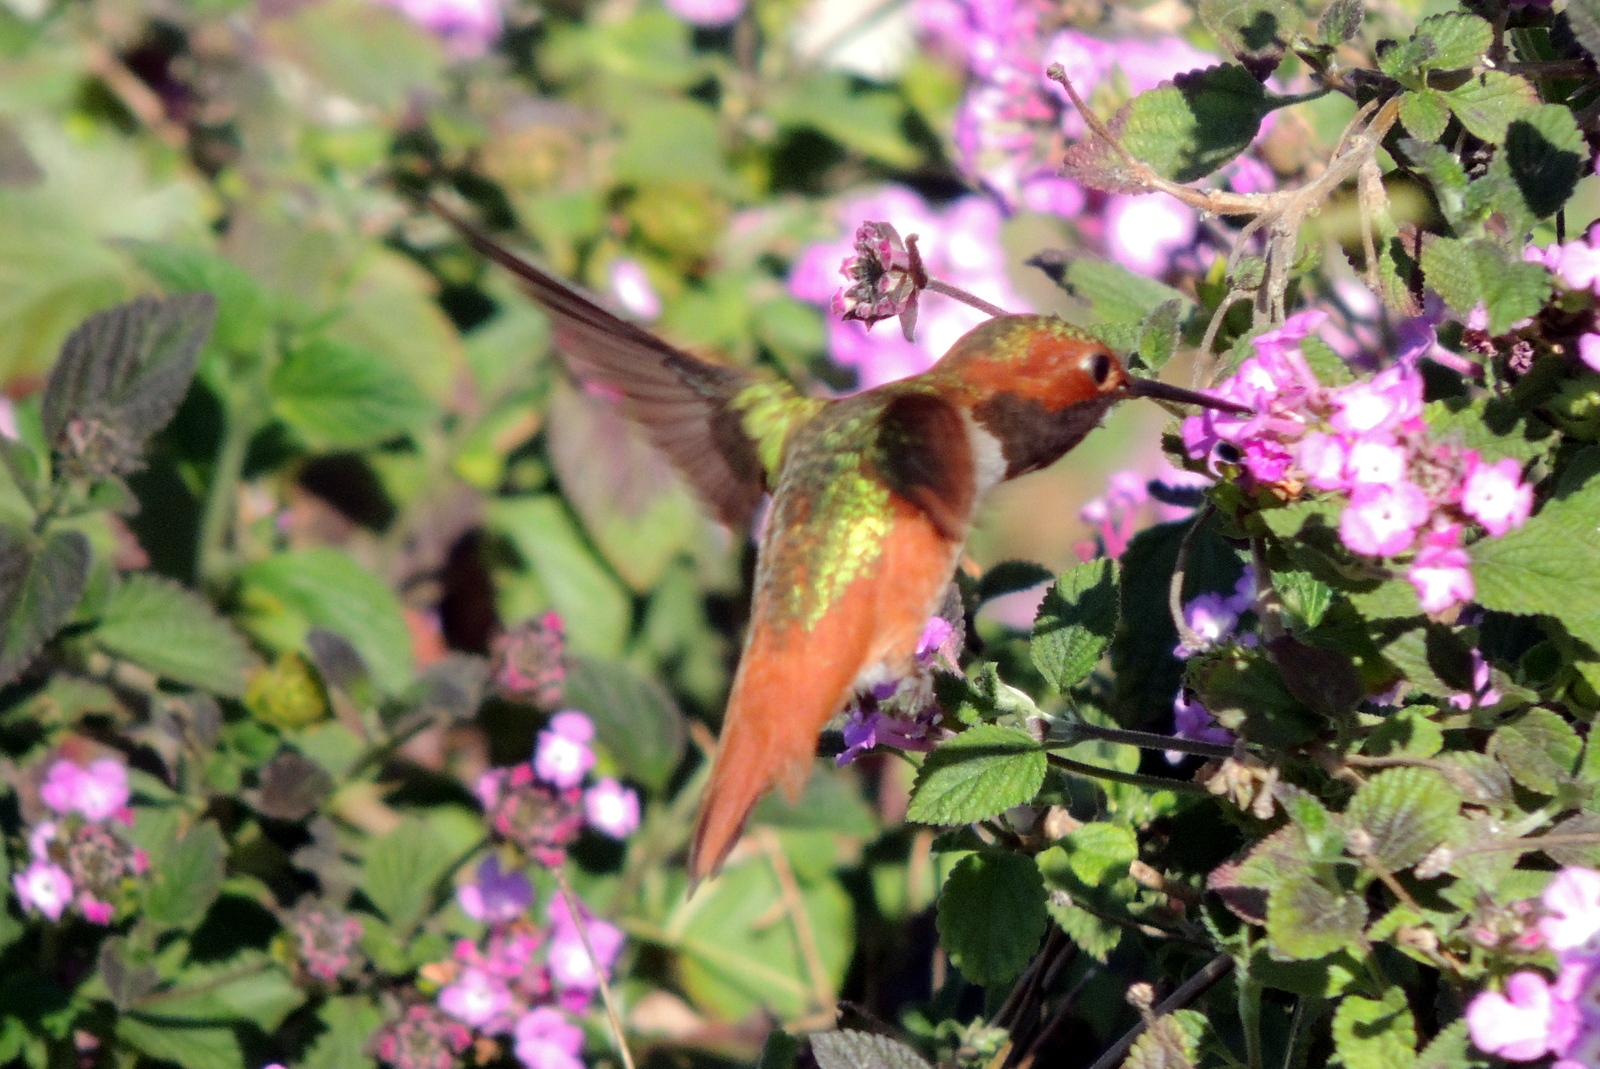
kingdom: Animalia
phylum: Chordata
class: Aves
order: Apodiformes
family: Trochilidae
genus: Selasphorus
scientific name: Selasphorus sasin
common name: Allen's hummingbird
